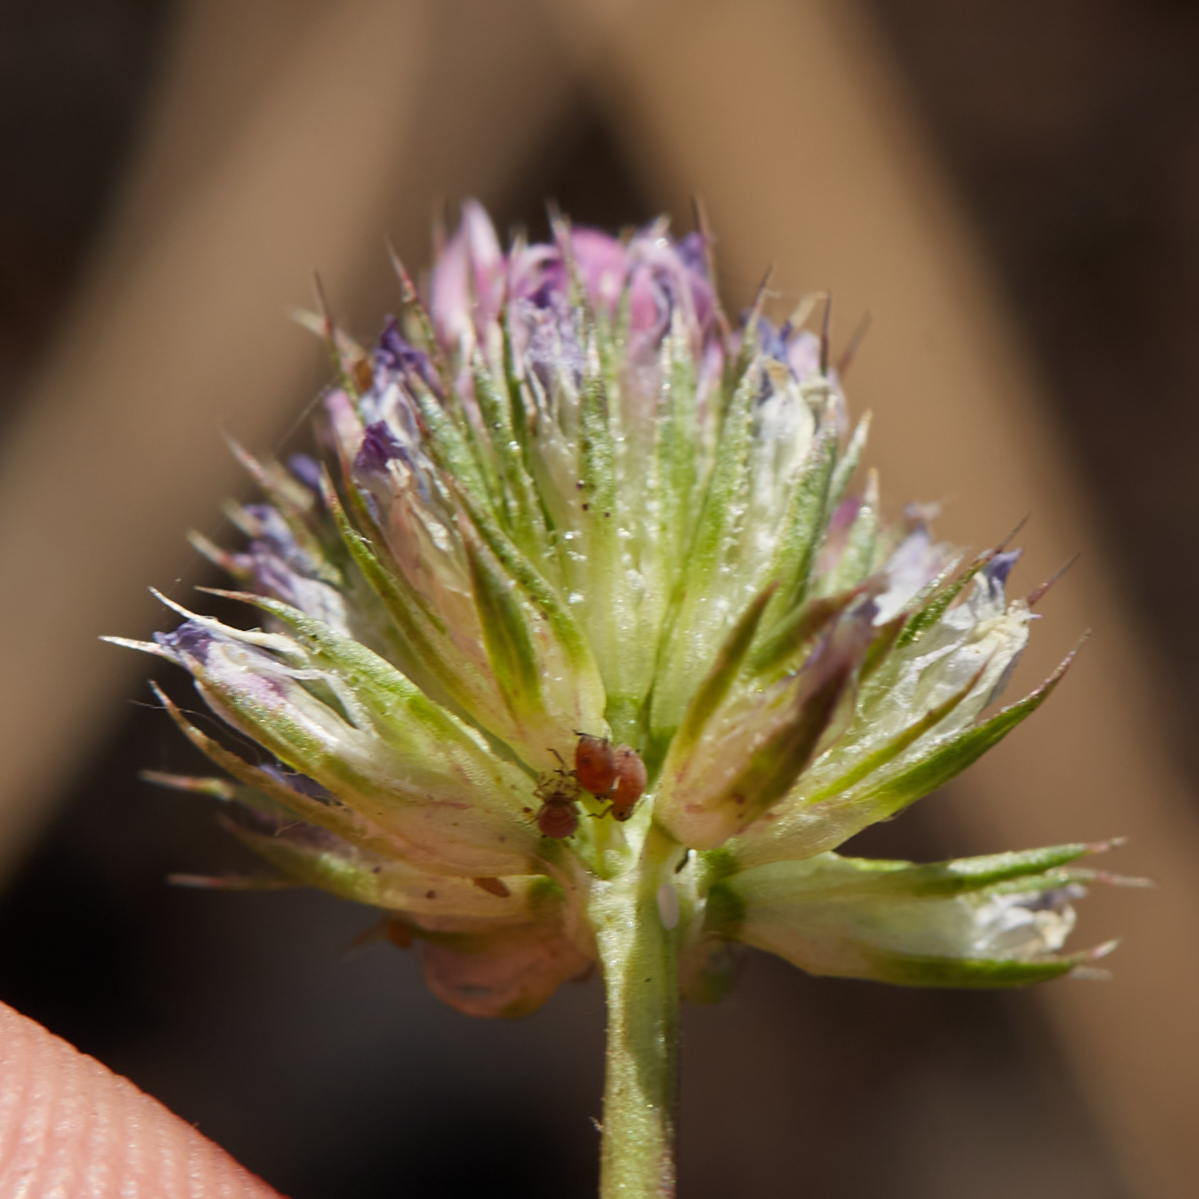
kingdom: Plantae
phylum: Tracheophyta
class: Magnoliopsida
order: Fabales
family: Fabaceae
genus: Trifolium
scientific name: Trifolium ciliolatum
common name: Foothill clover
